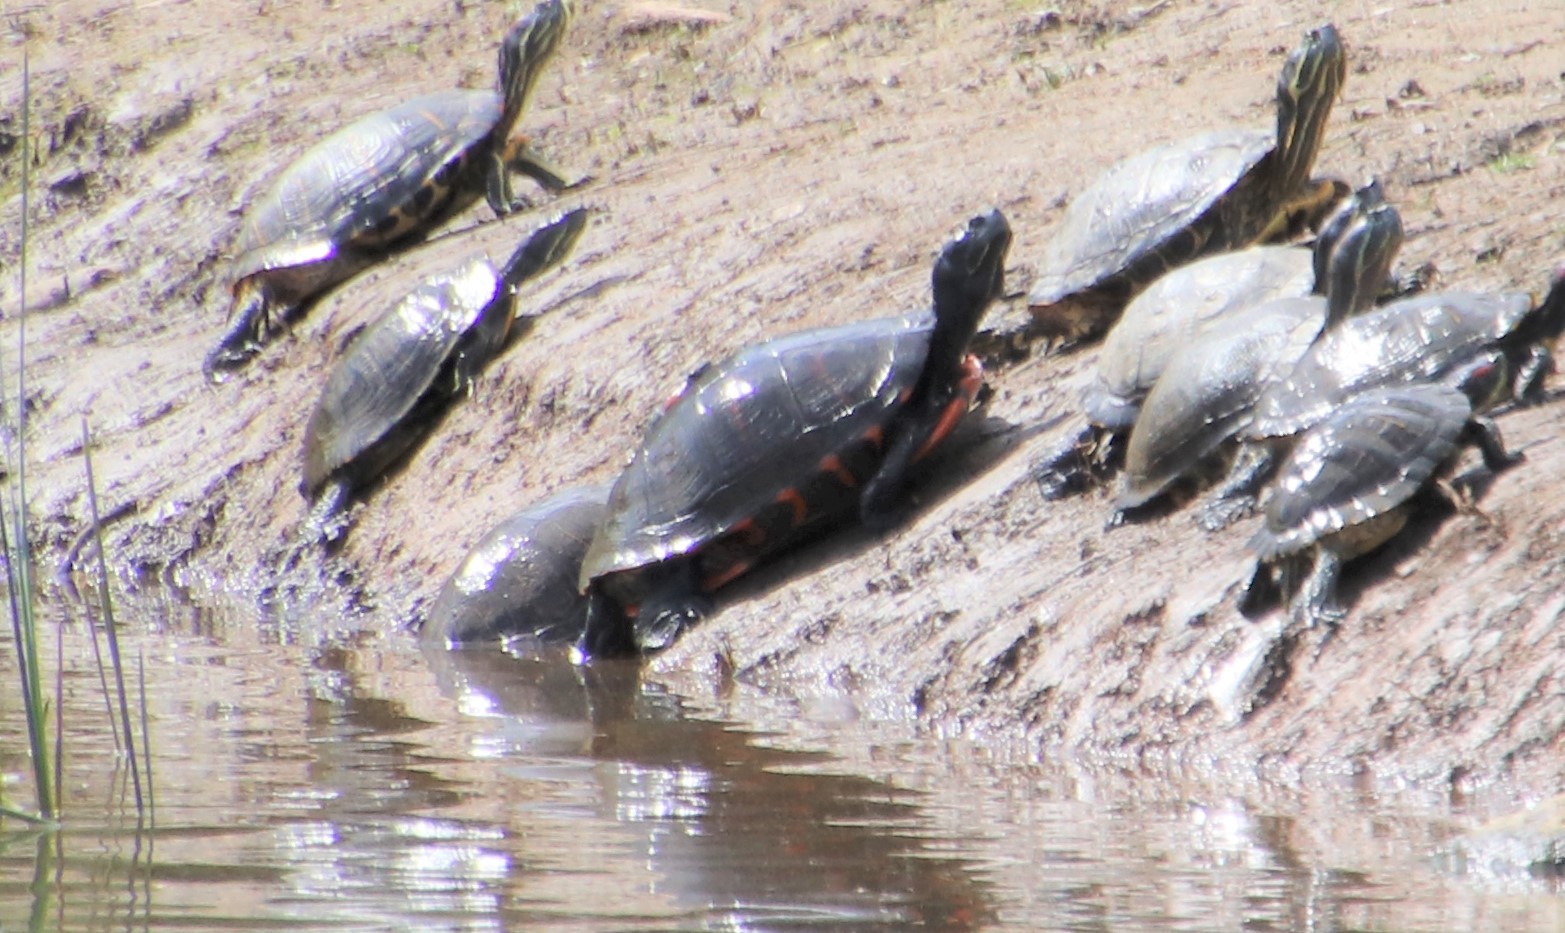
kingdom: Animalia
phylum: Chordata
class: Testudines
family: Emydidae
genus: Trachemys
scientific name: Trachemys scripta
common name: Slider
